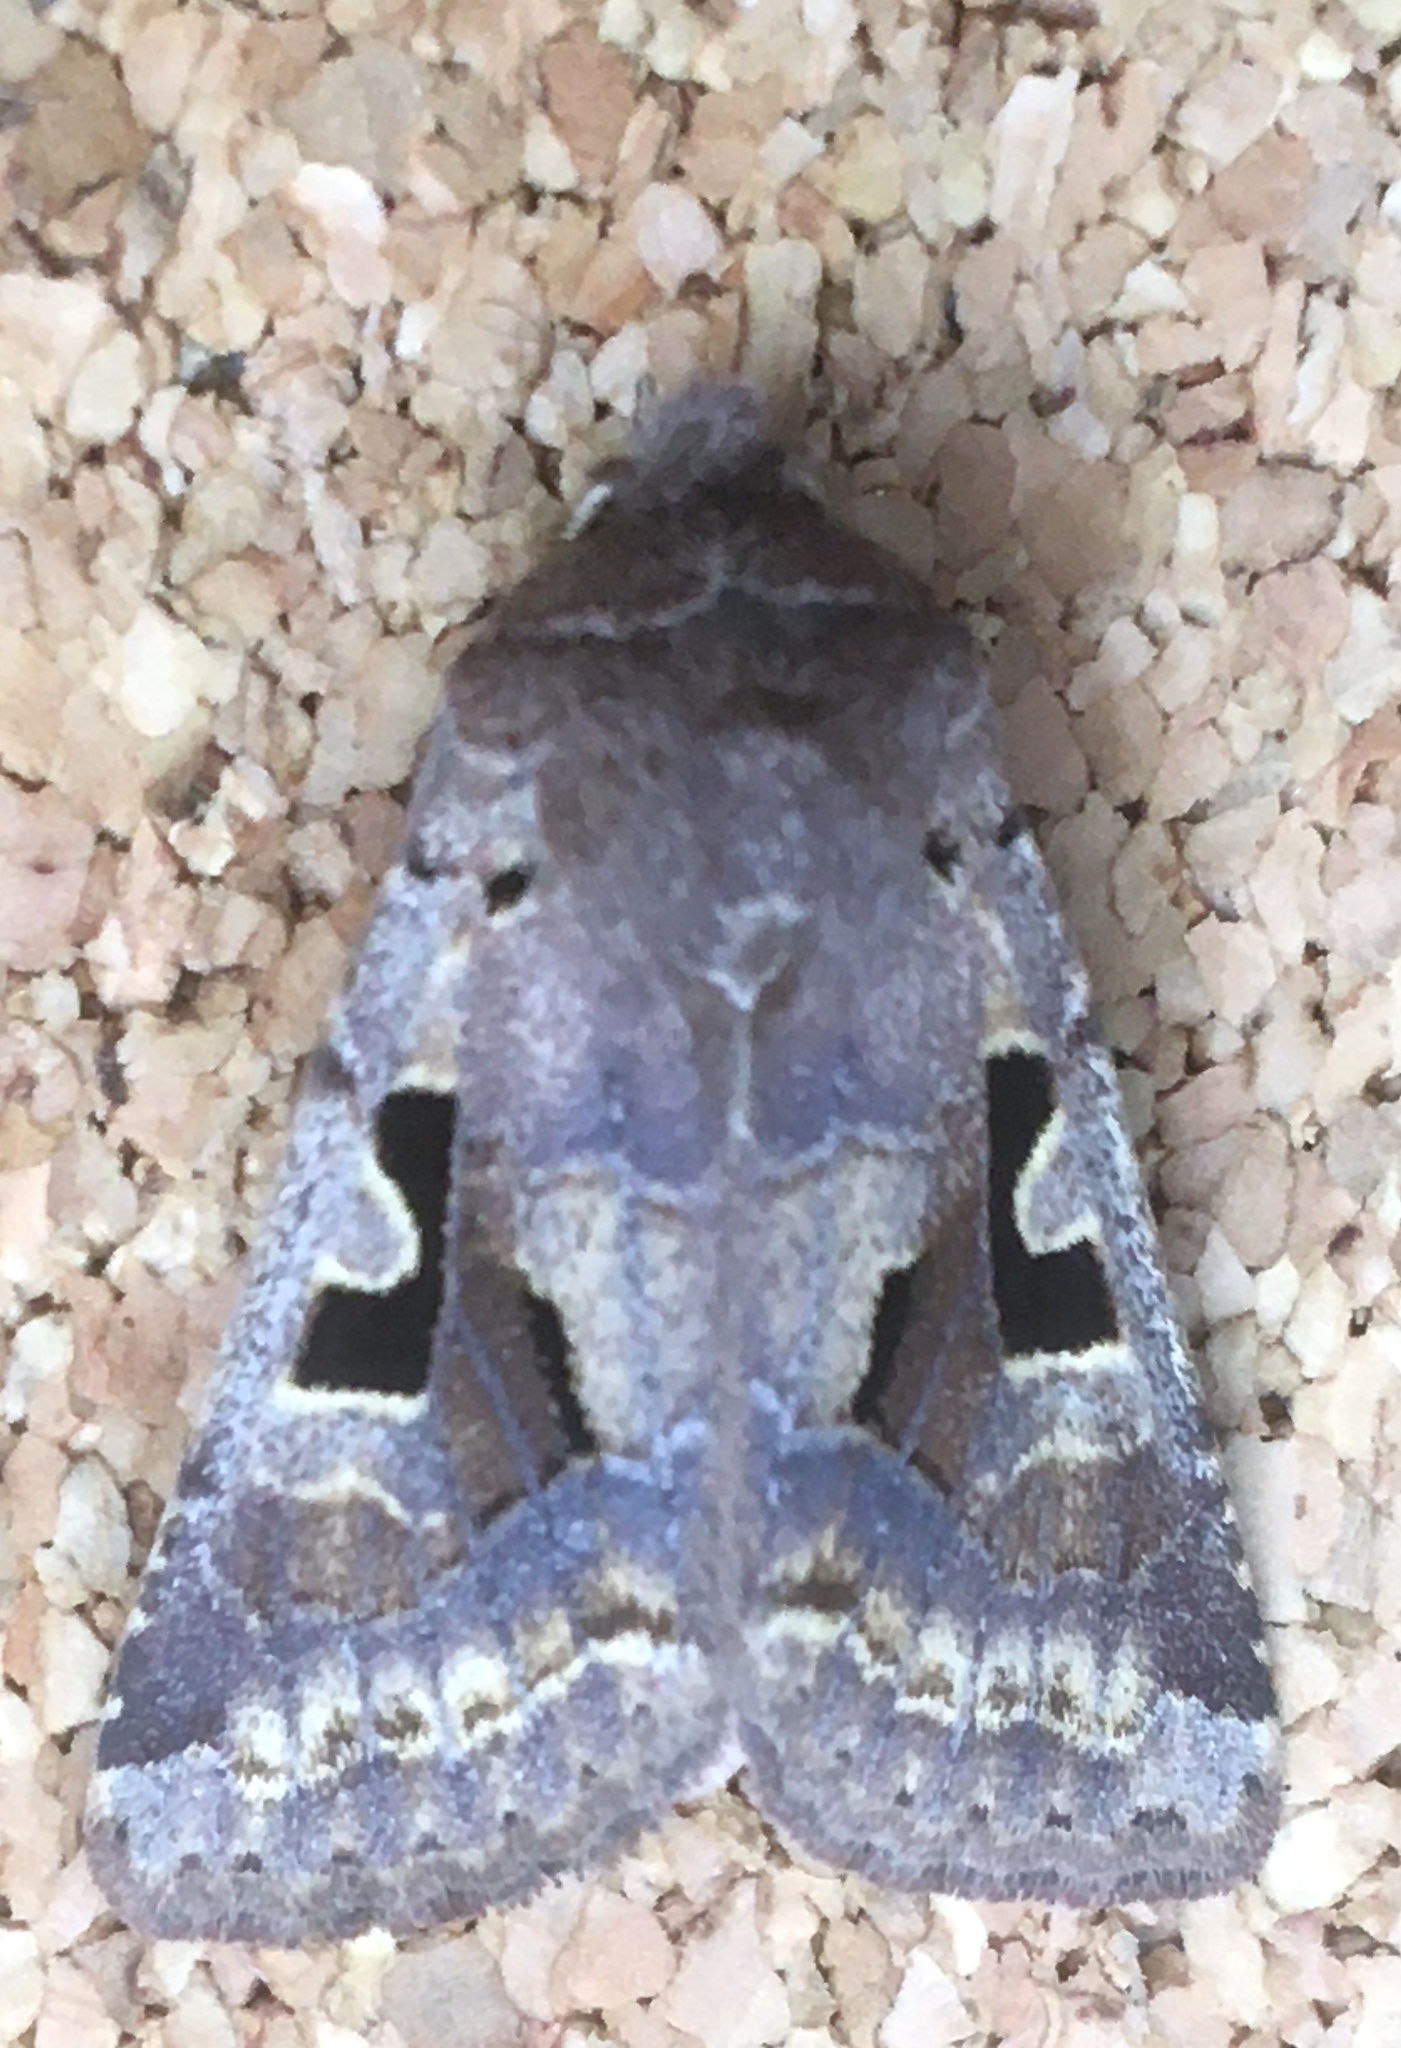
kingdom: Animalia
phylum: Arthropoda
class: Insecta
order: Lepidoptera
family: Noctuidae
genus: Orthosia
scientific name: Orthosia gothica
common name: Hebrew character
